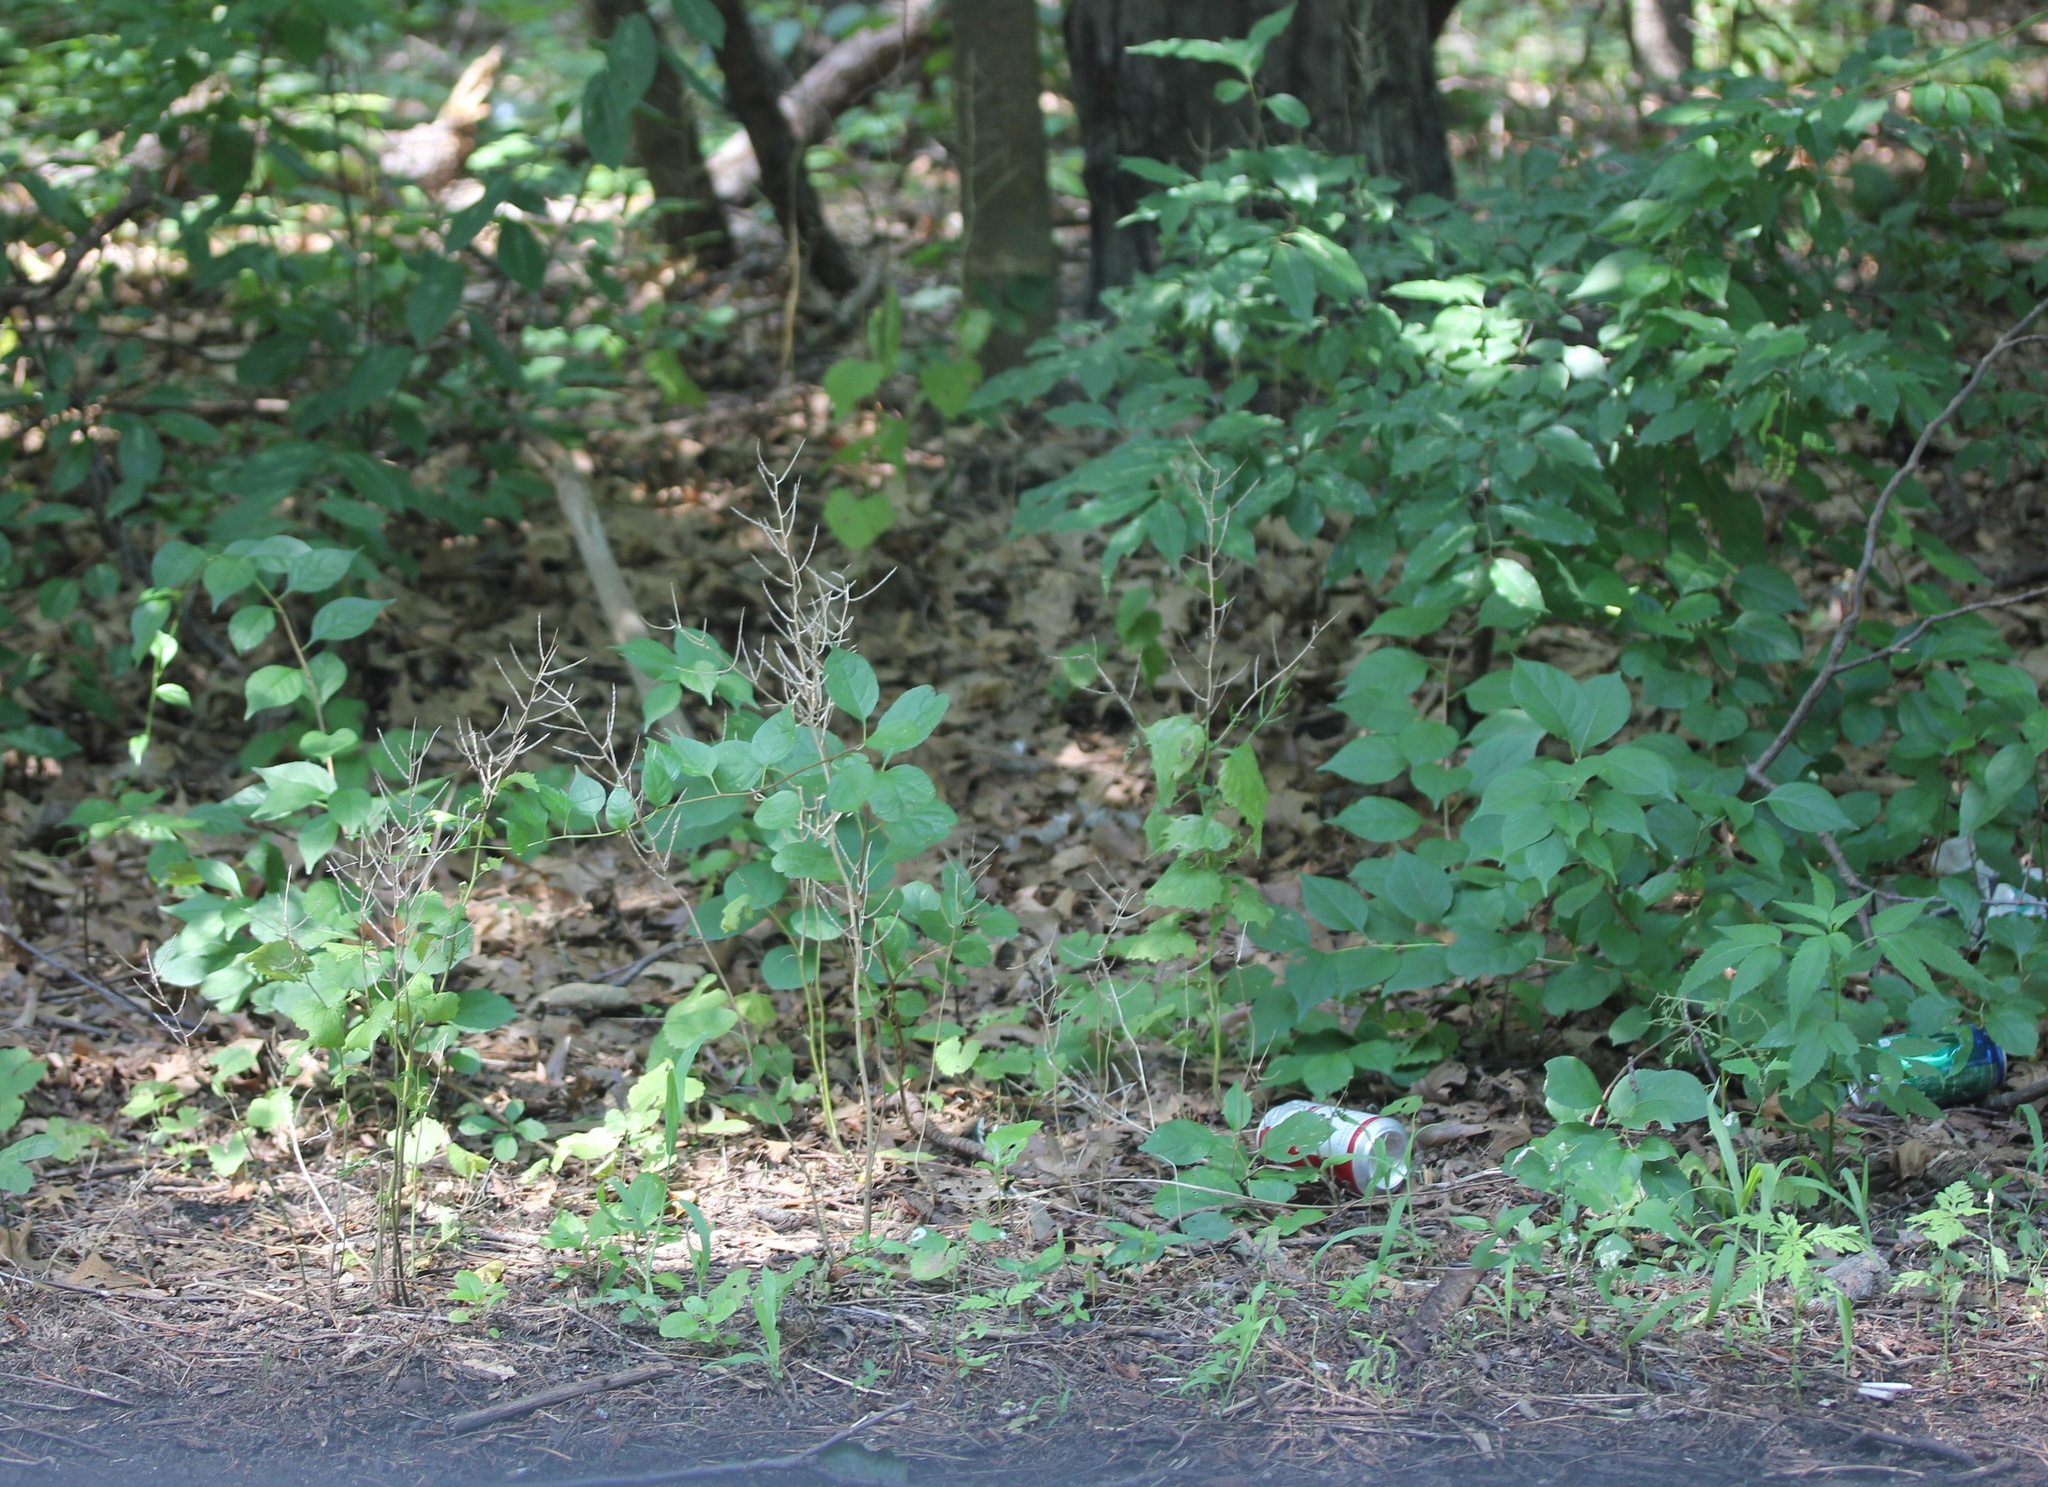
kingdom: Plantae
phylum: Tracheophyta
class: Magnoliopsida
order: Celastrales
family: Celastraceae
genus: Celastrus
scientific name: Celastrus orbiculatus
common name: Oriental bittersweet
